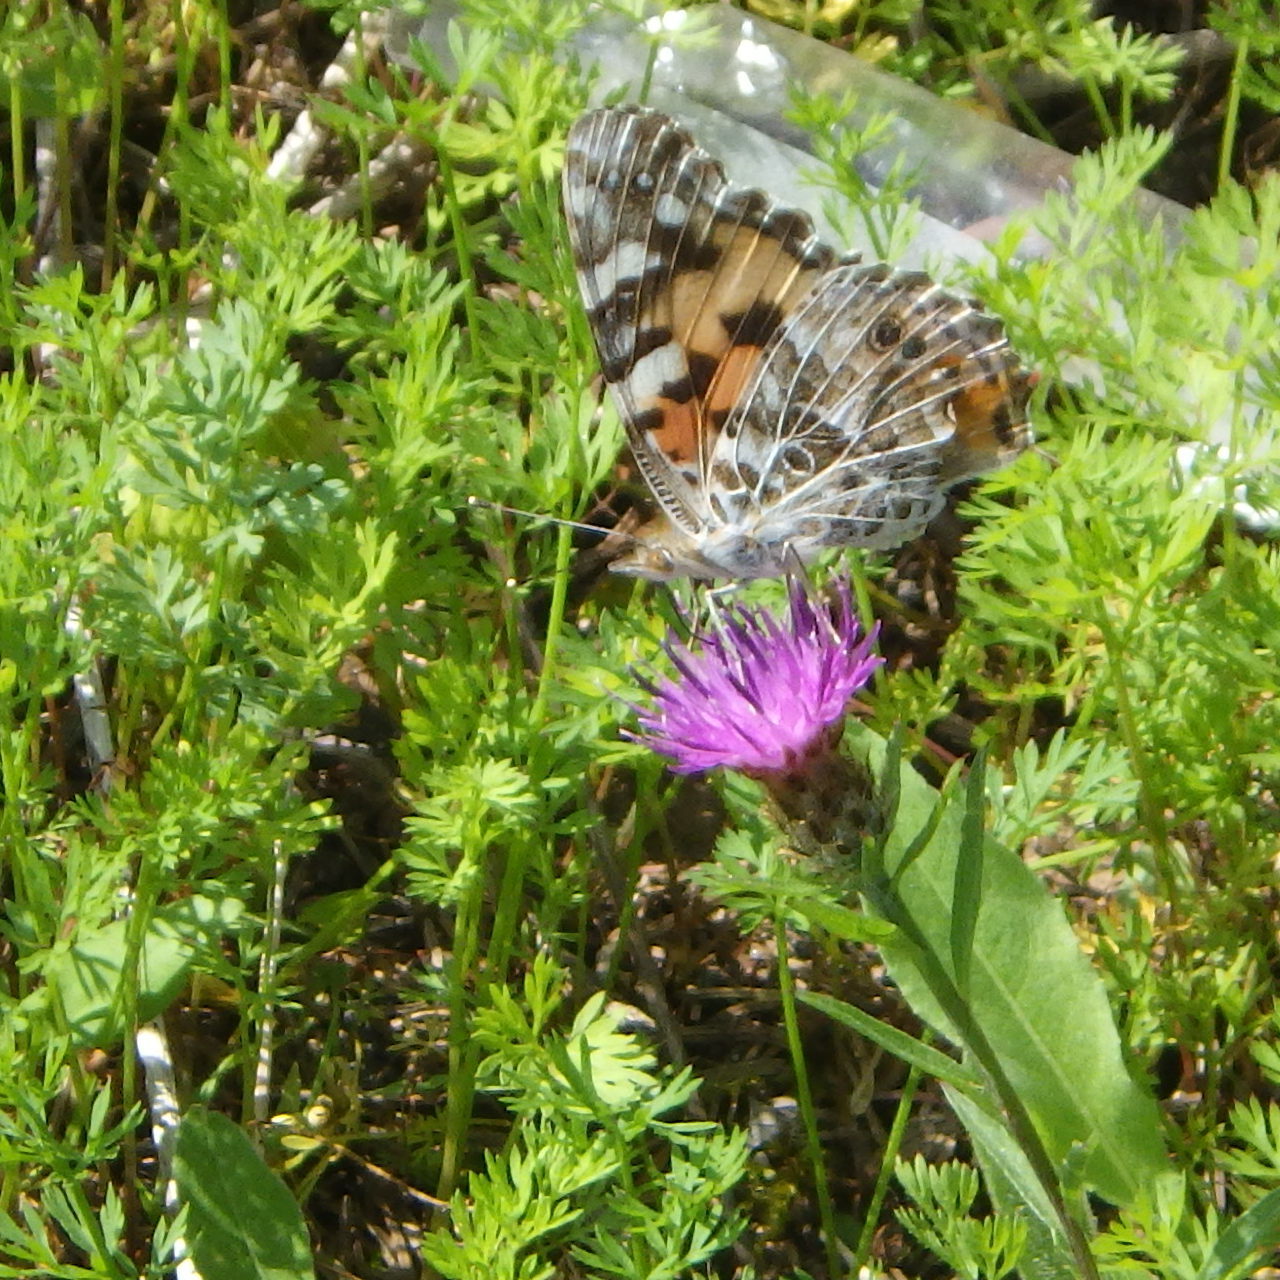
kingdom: Animalia
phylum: Arthropoda
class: Insecta
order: Lepidoptera
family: Nymphalidae
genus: Vanessa
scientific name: Vanessa cardui
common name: Painted lady
